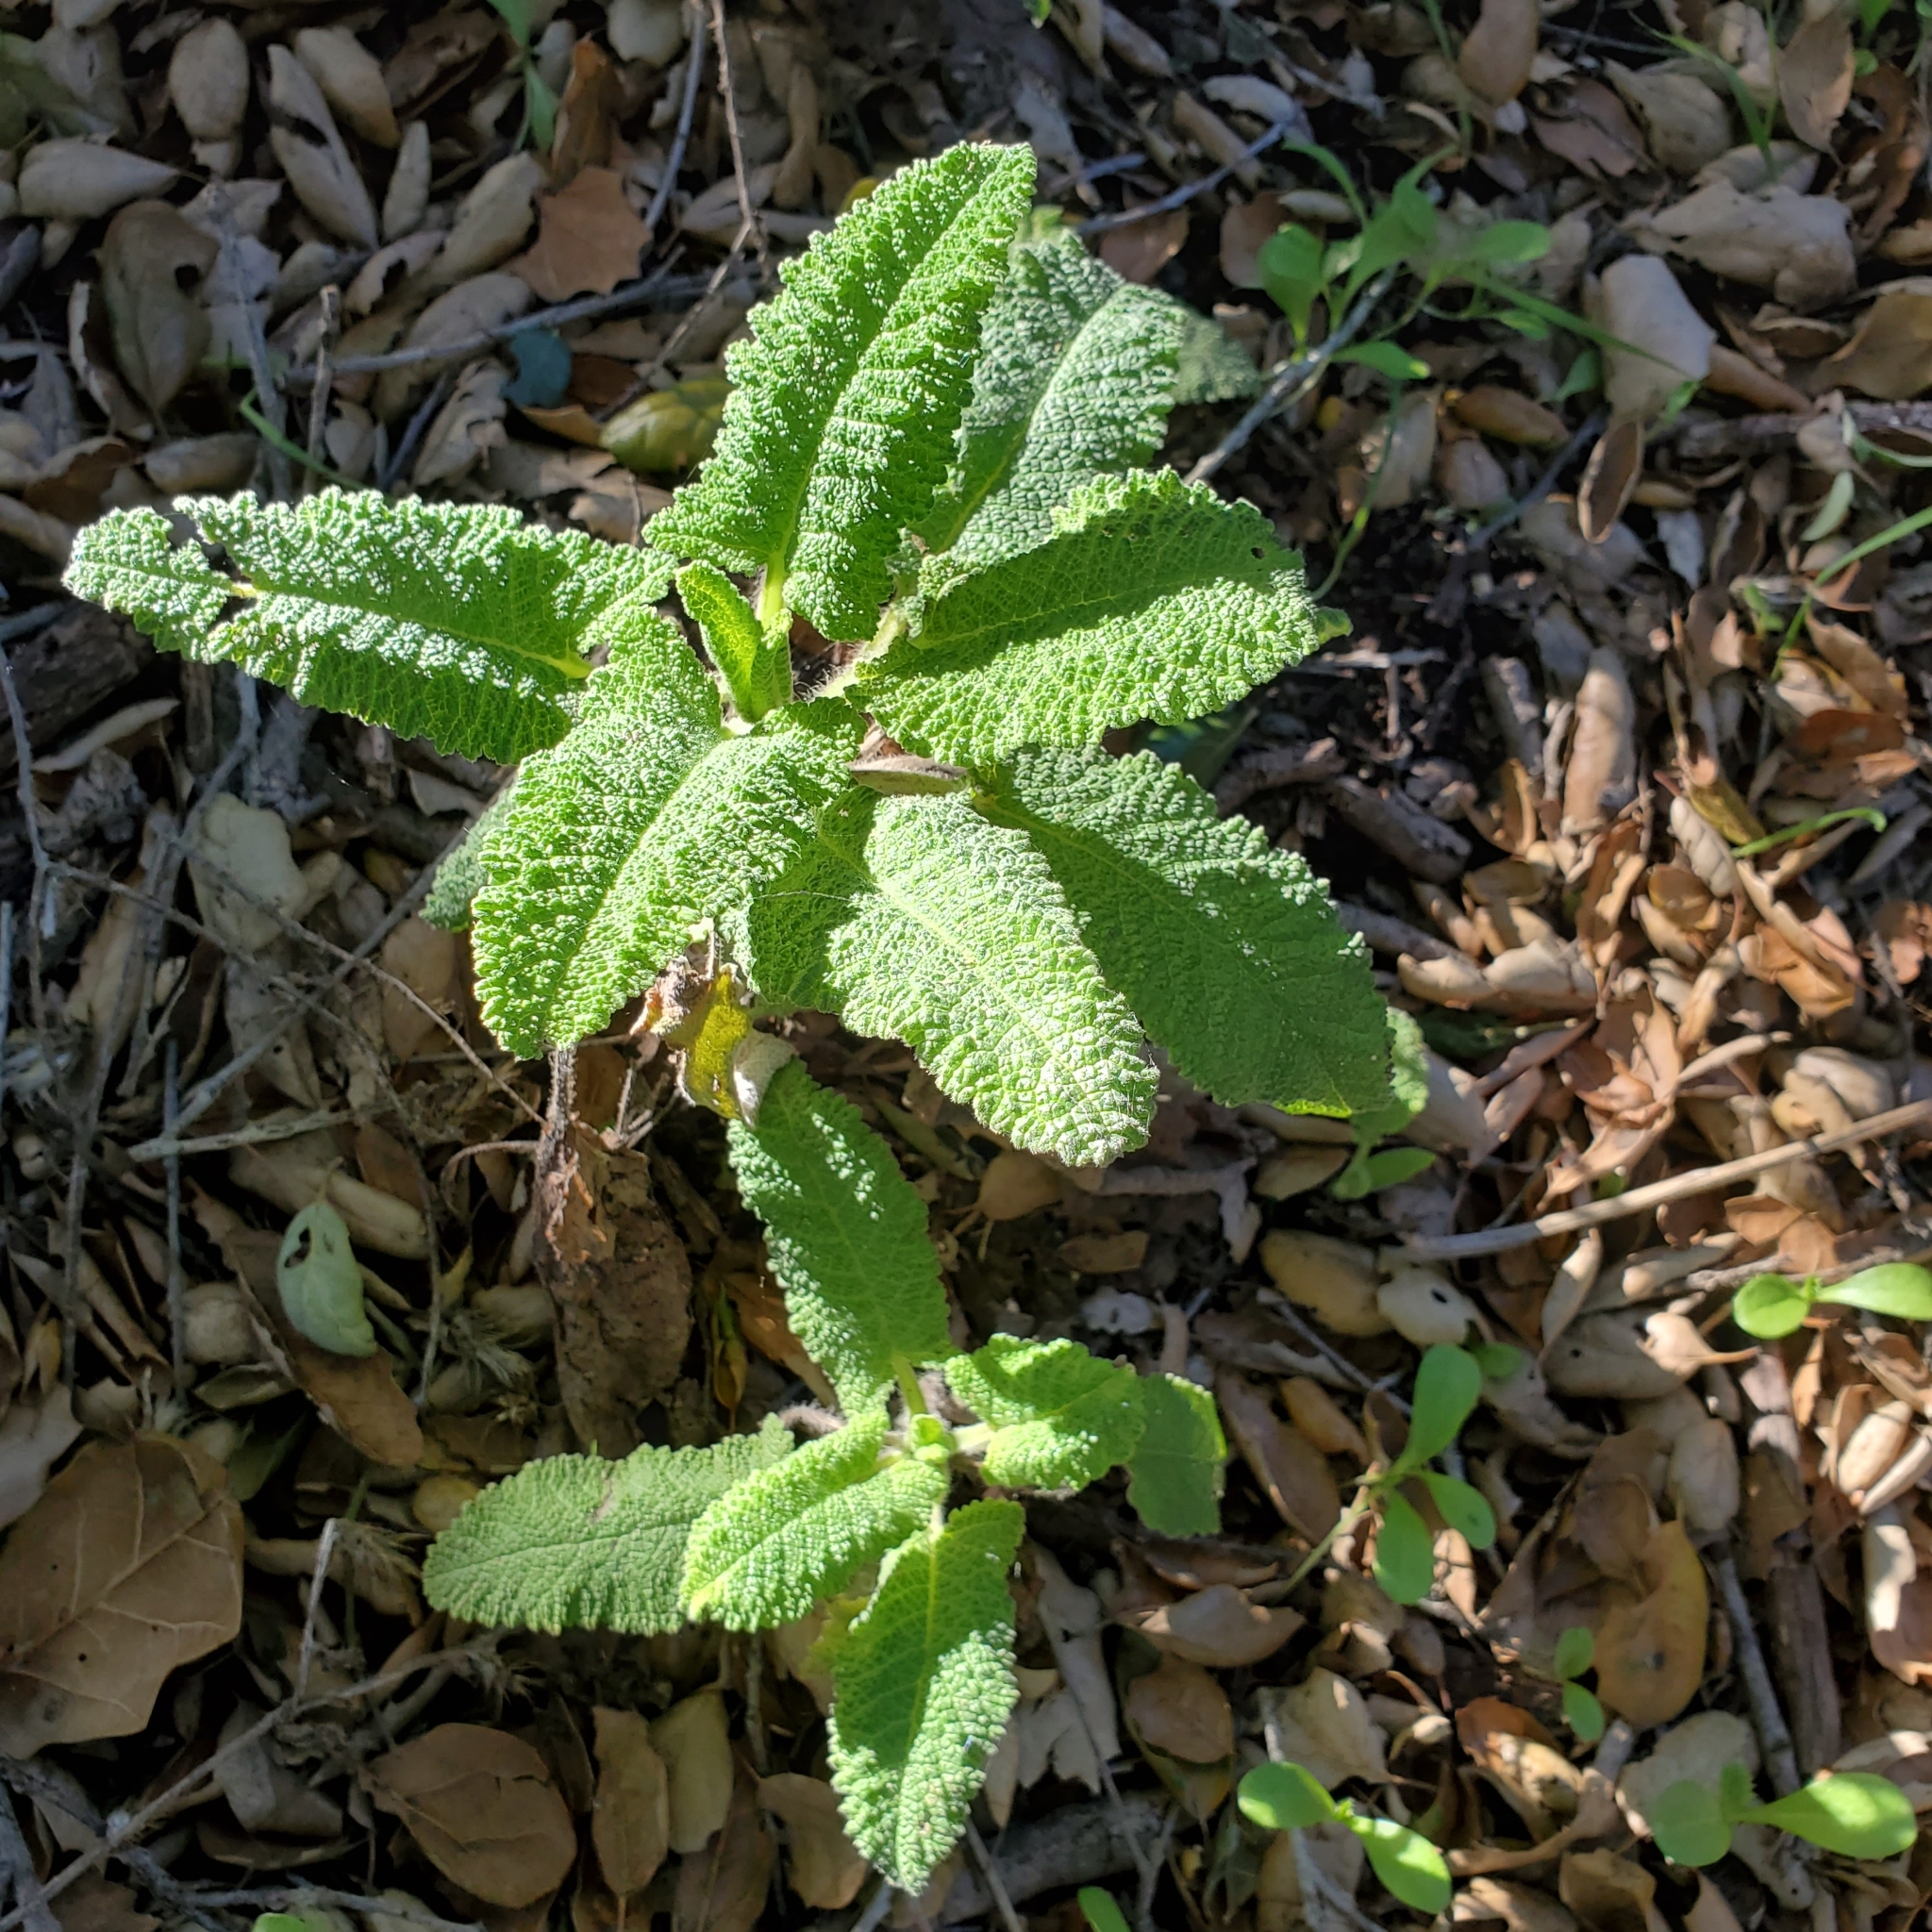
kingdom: Plantae
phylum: Tracheophyta
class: Magnoliopsida
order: Lamiales
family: Lamiaceae
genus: Salvia
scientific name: Salvia spathacea
